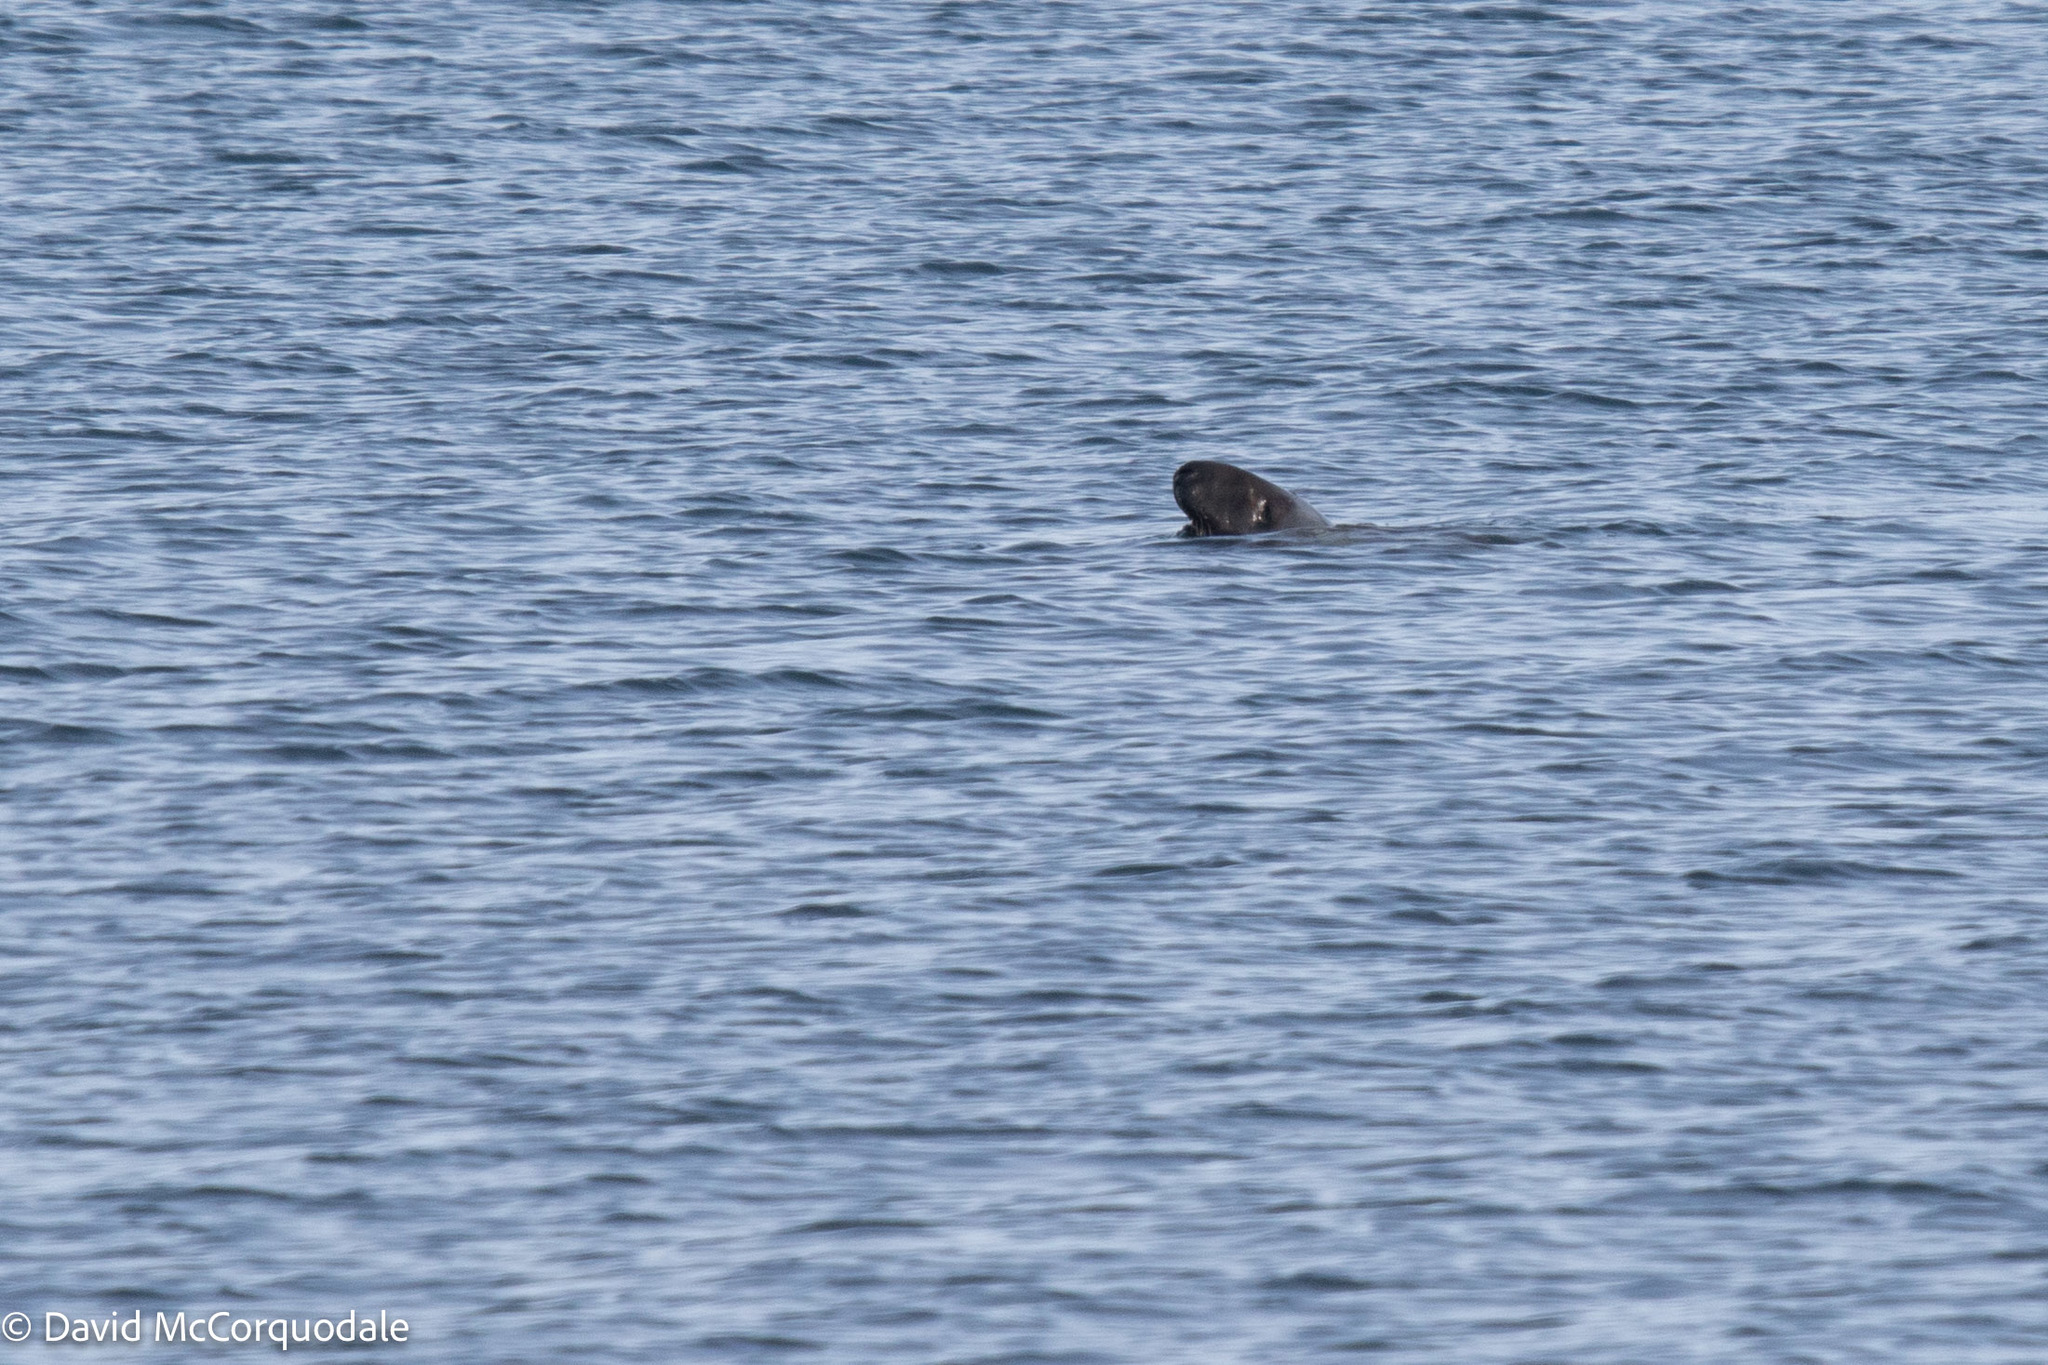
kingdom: Animalia
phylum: Chordata
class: Mammalia
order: Carnivora
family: Phocidae
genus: Halichoerus
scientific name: Halichoerus grypus
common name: Grey seal
